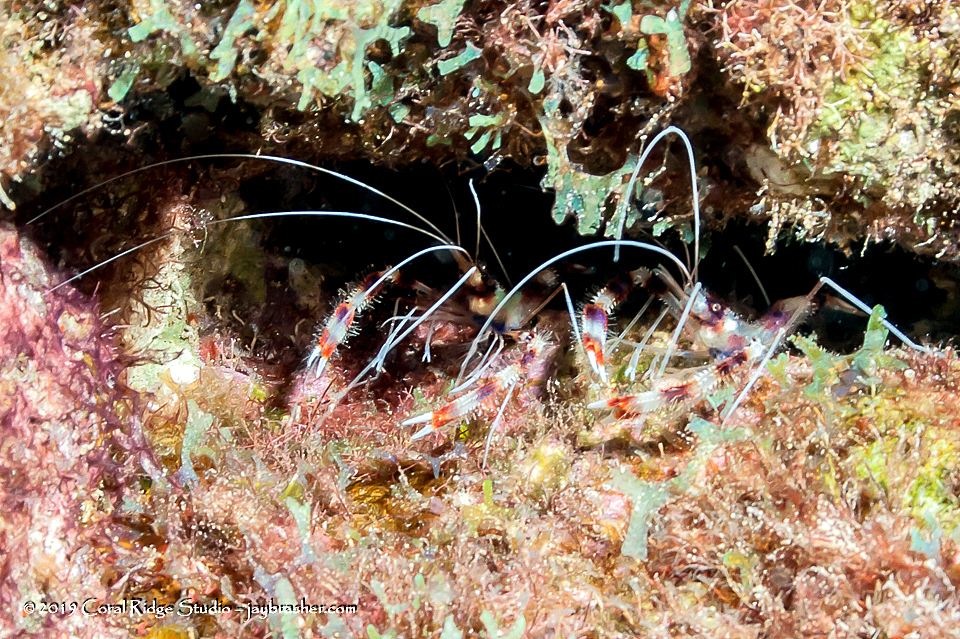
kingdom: Animalia
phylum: Arthropoda
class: Malacostraca
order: Decapoda
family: Stenopodidae
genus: Stenopus
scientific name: Stenopus hispidus
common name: Banded coral shrimp
